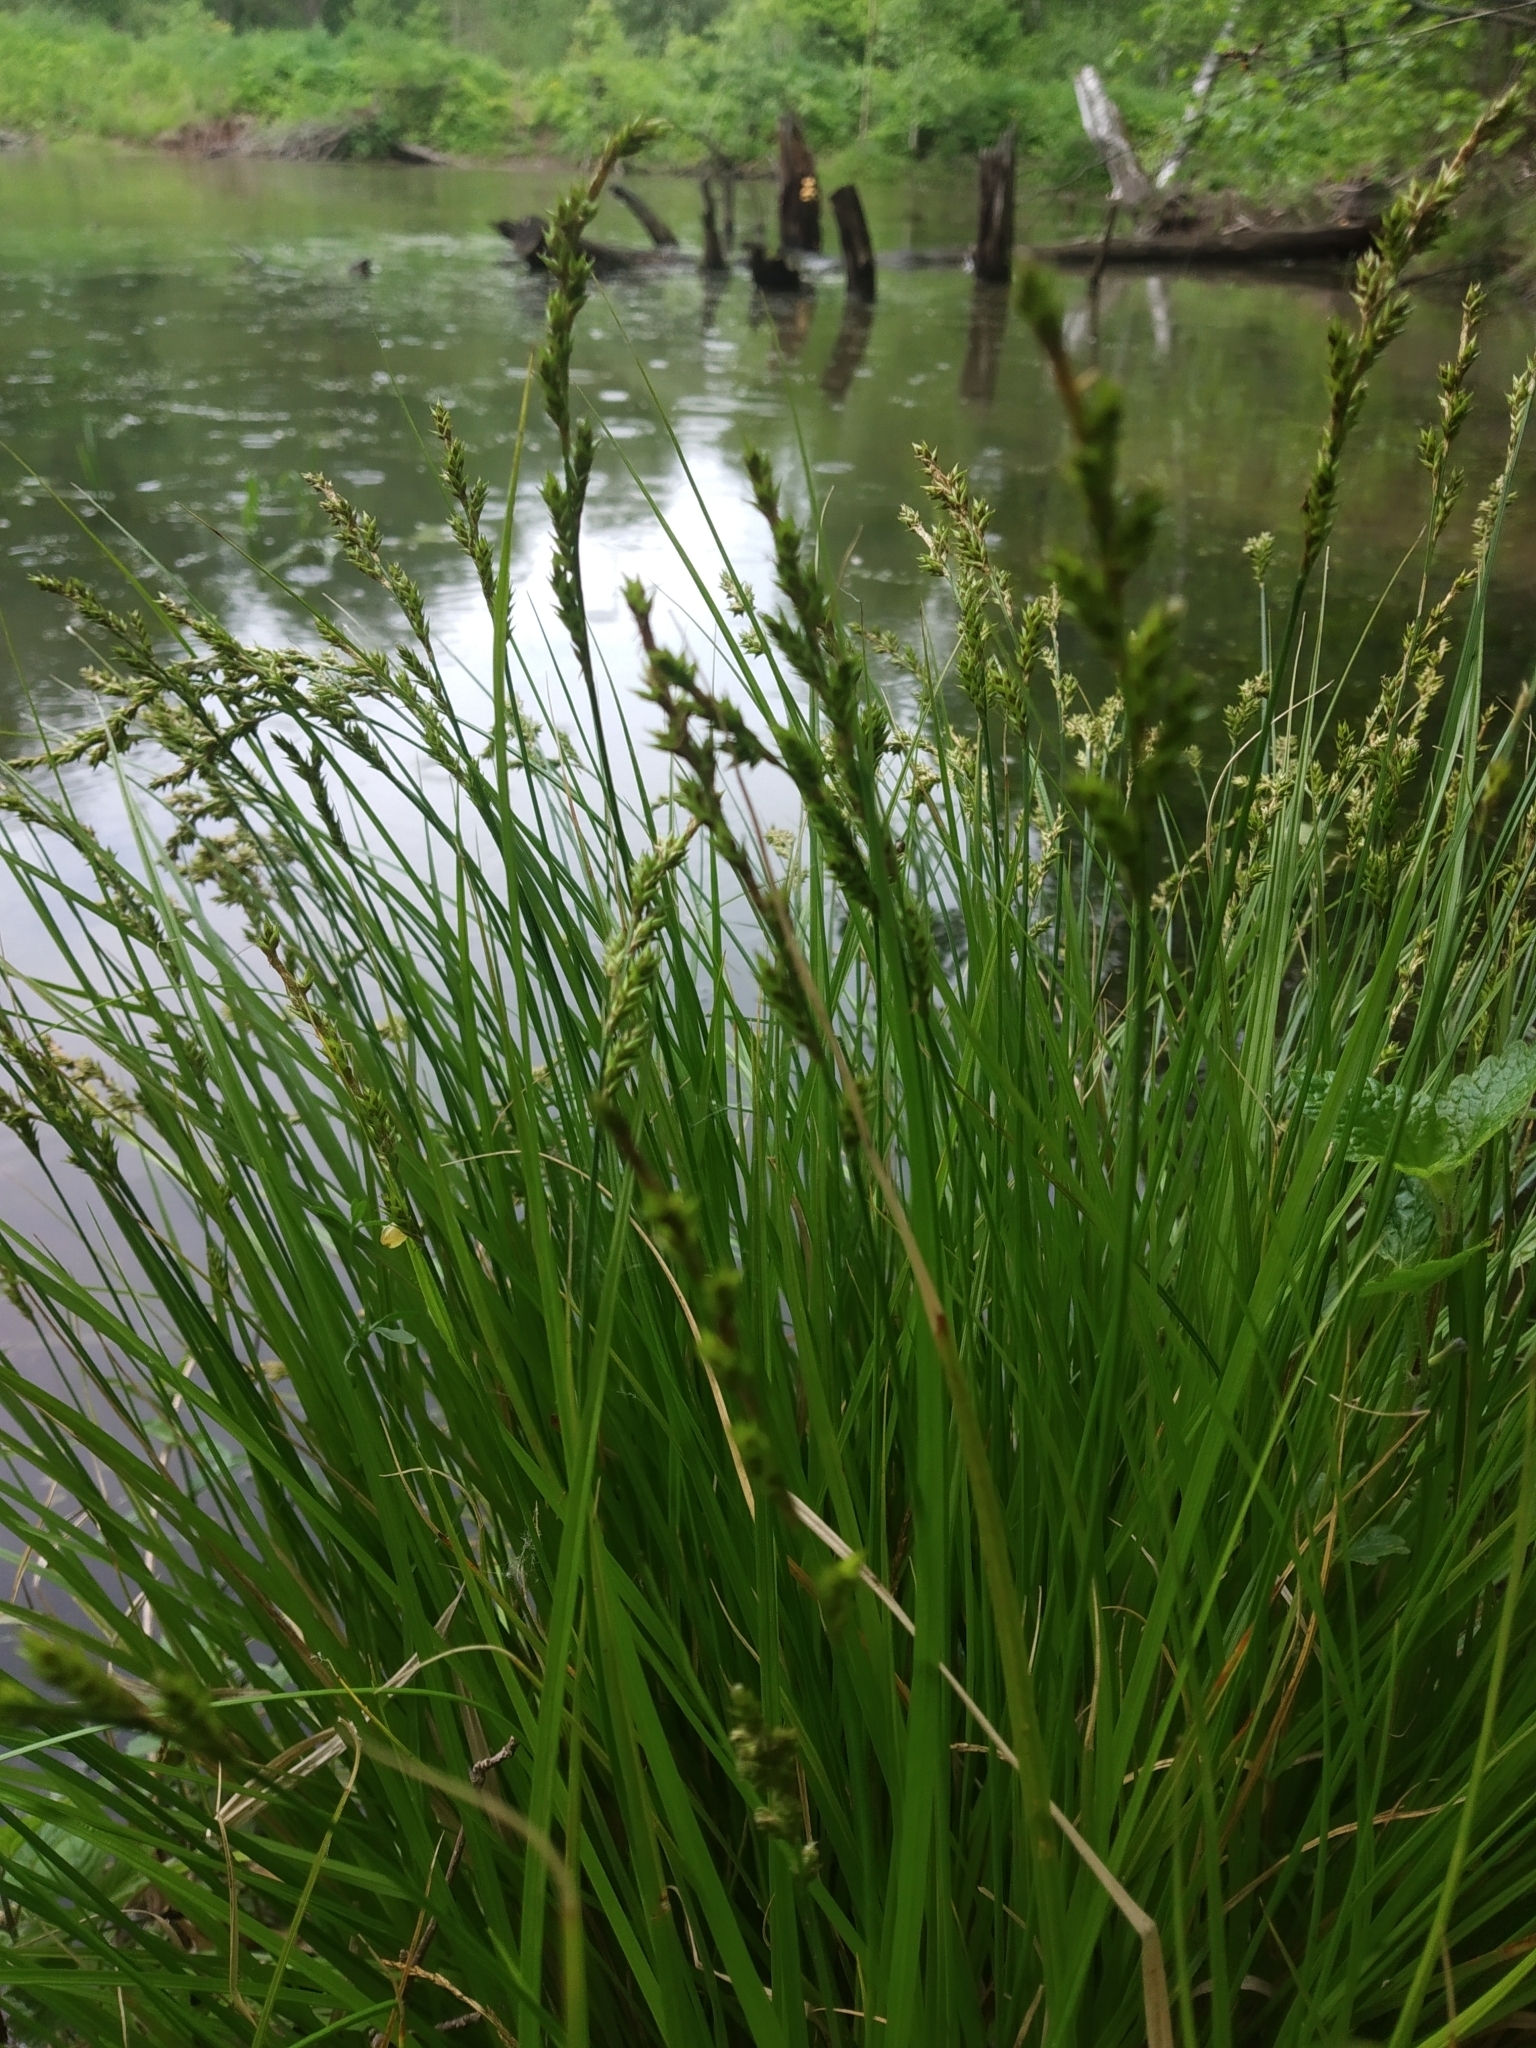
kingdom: Plantae
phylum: Tracheophyta
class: Liliopsida
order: Poales
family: Cyperaceae
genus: Carex
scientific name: Carex elongata
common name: Elongated sedge
